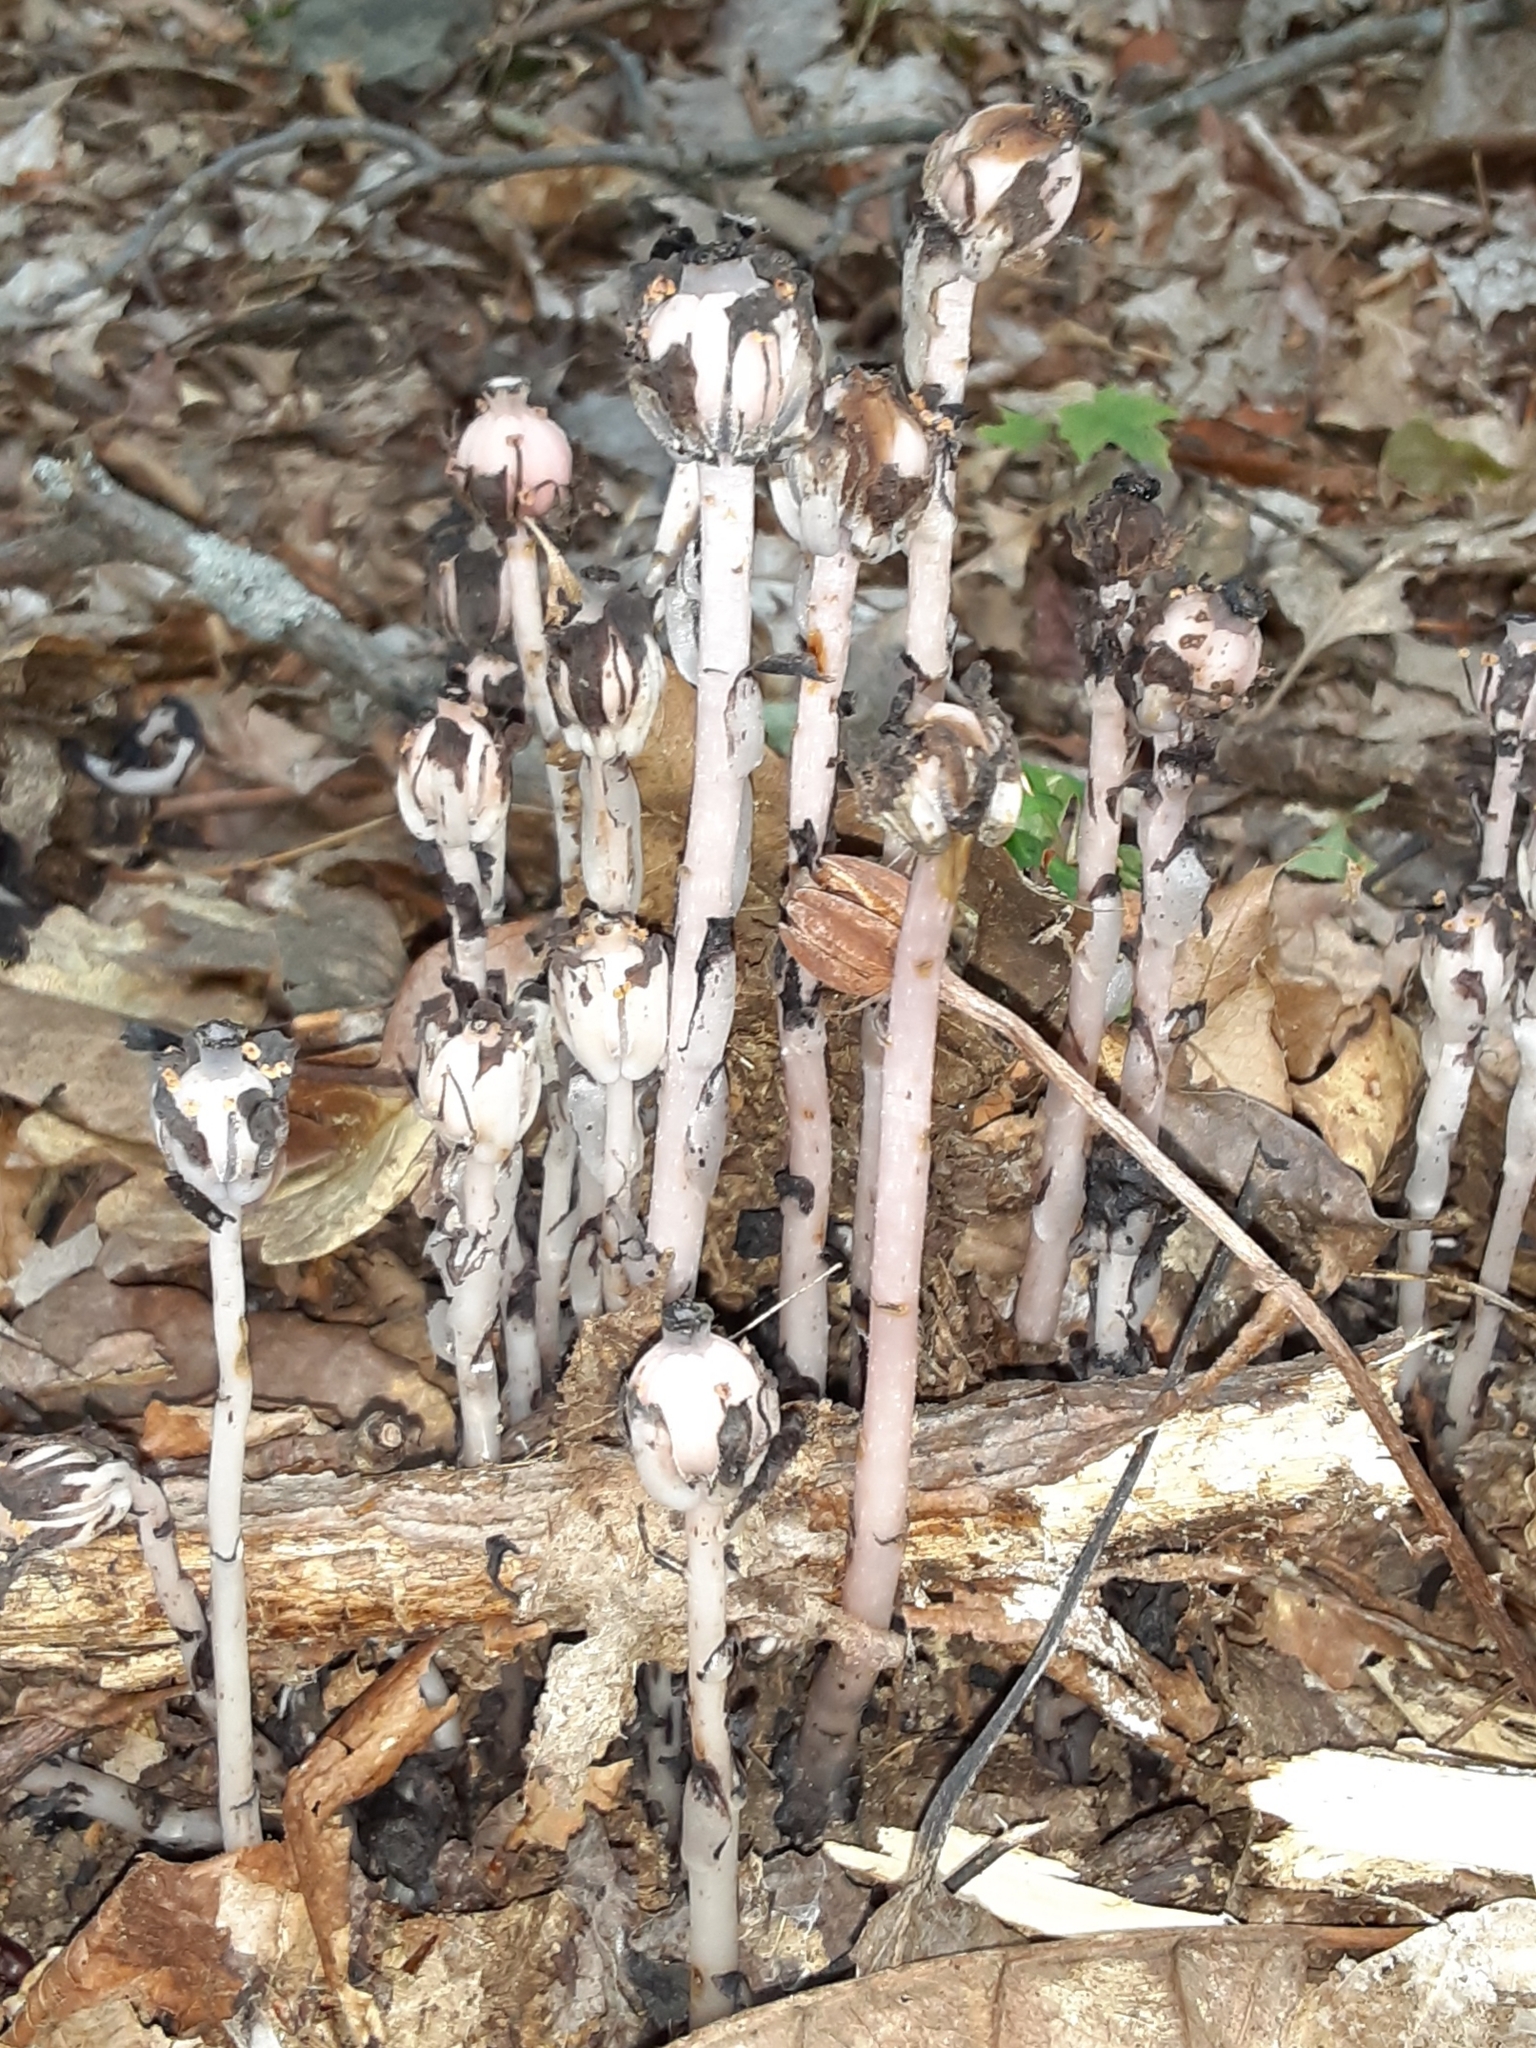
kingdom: Plantae
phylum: Tracheophyta
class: Magnoliopsida
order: Ericales
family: Ericaceae
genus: Monotropa
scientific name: Monotropa uniflora
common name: Convulsion root
